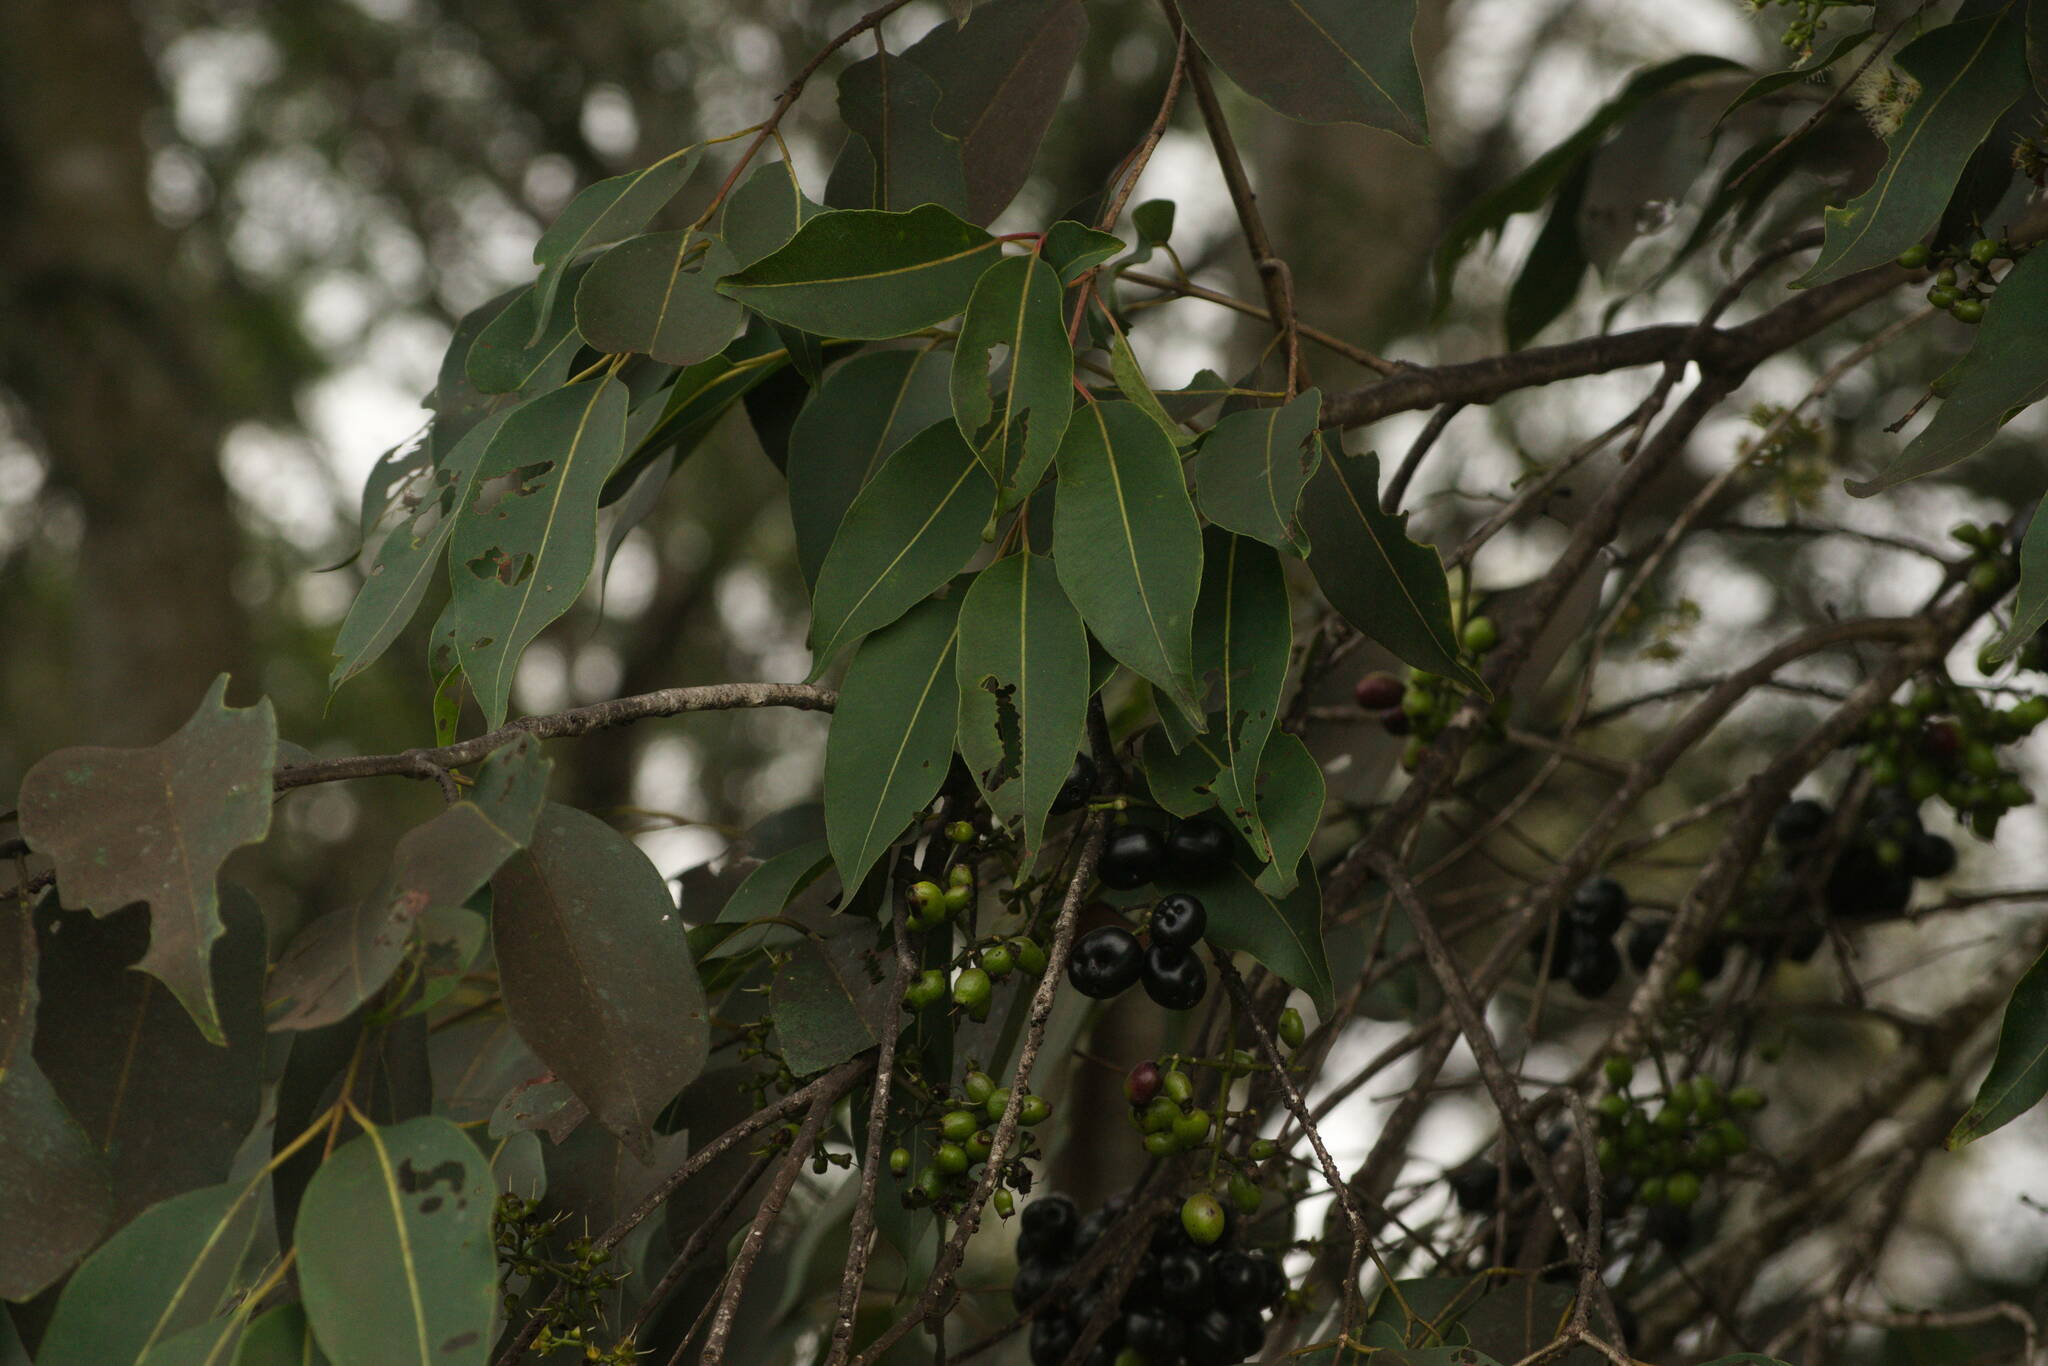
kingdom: Plantae
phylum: Tracheophyta
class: Magnoliopsida
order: Myrtales
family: Myrtaceae
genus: Syzygium
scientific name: Syzygium cumini
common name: Java plum
